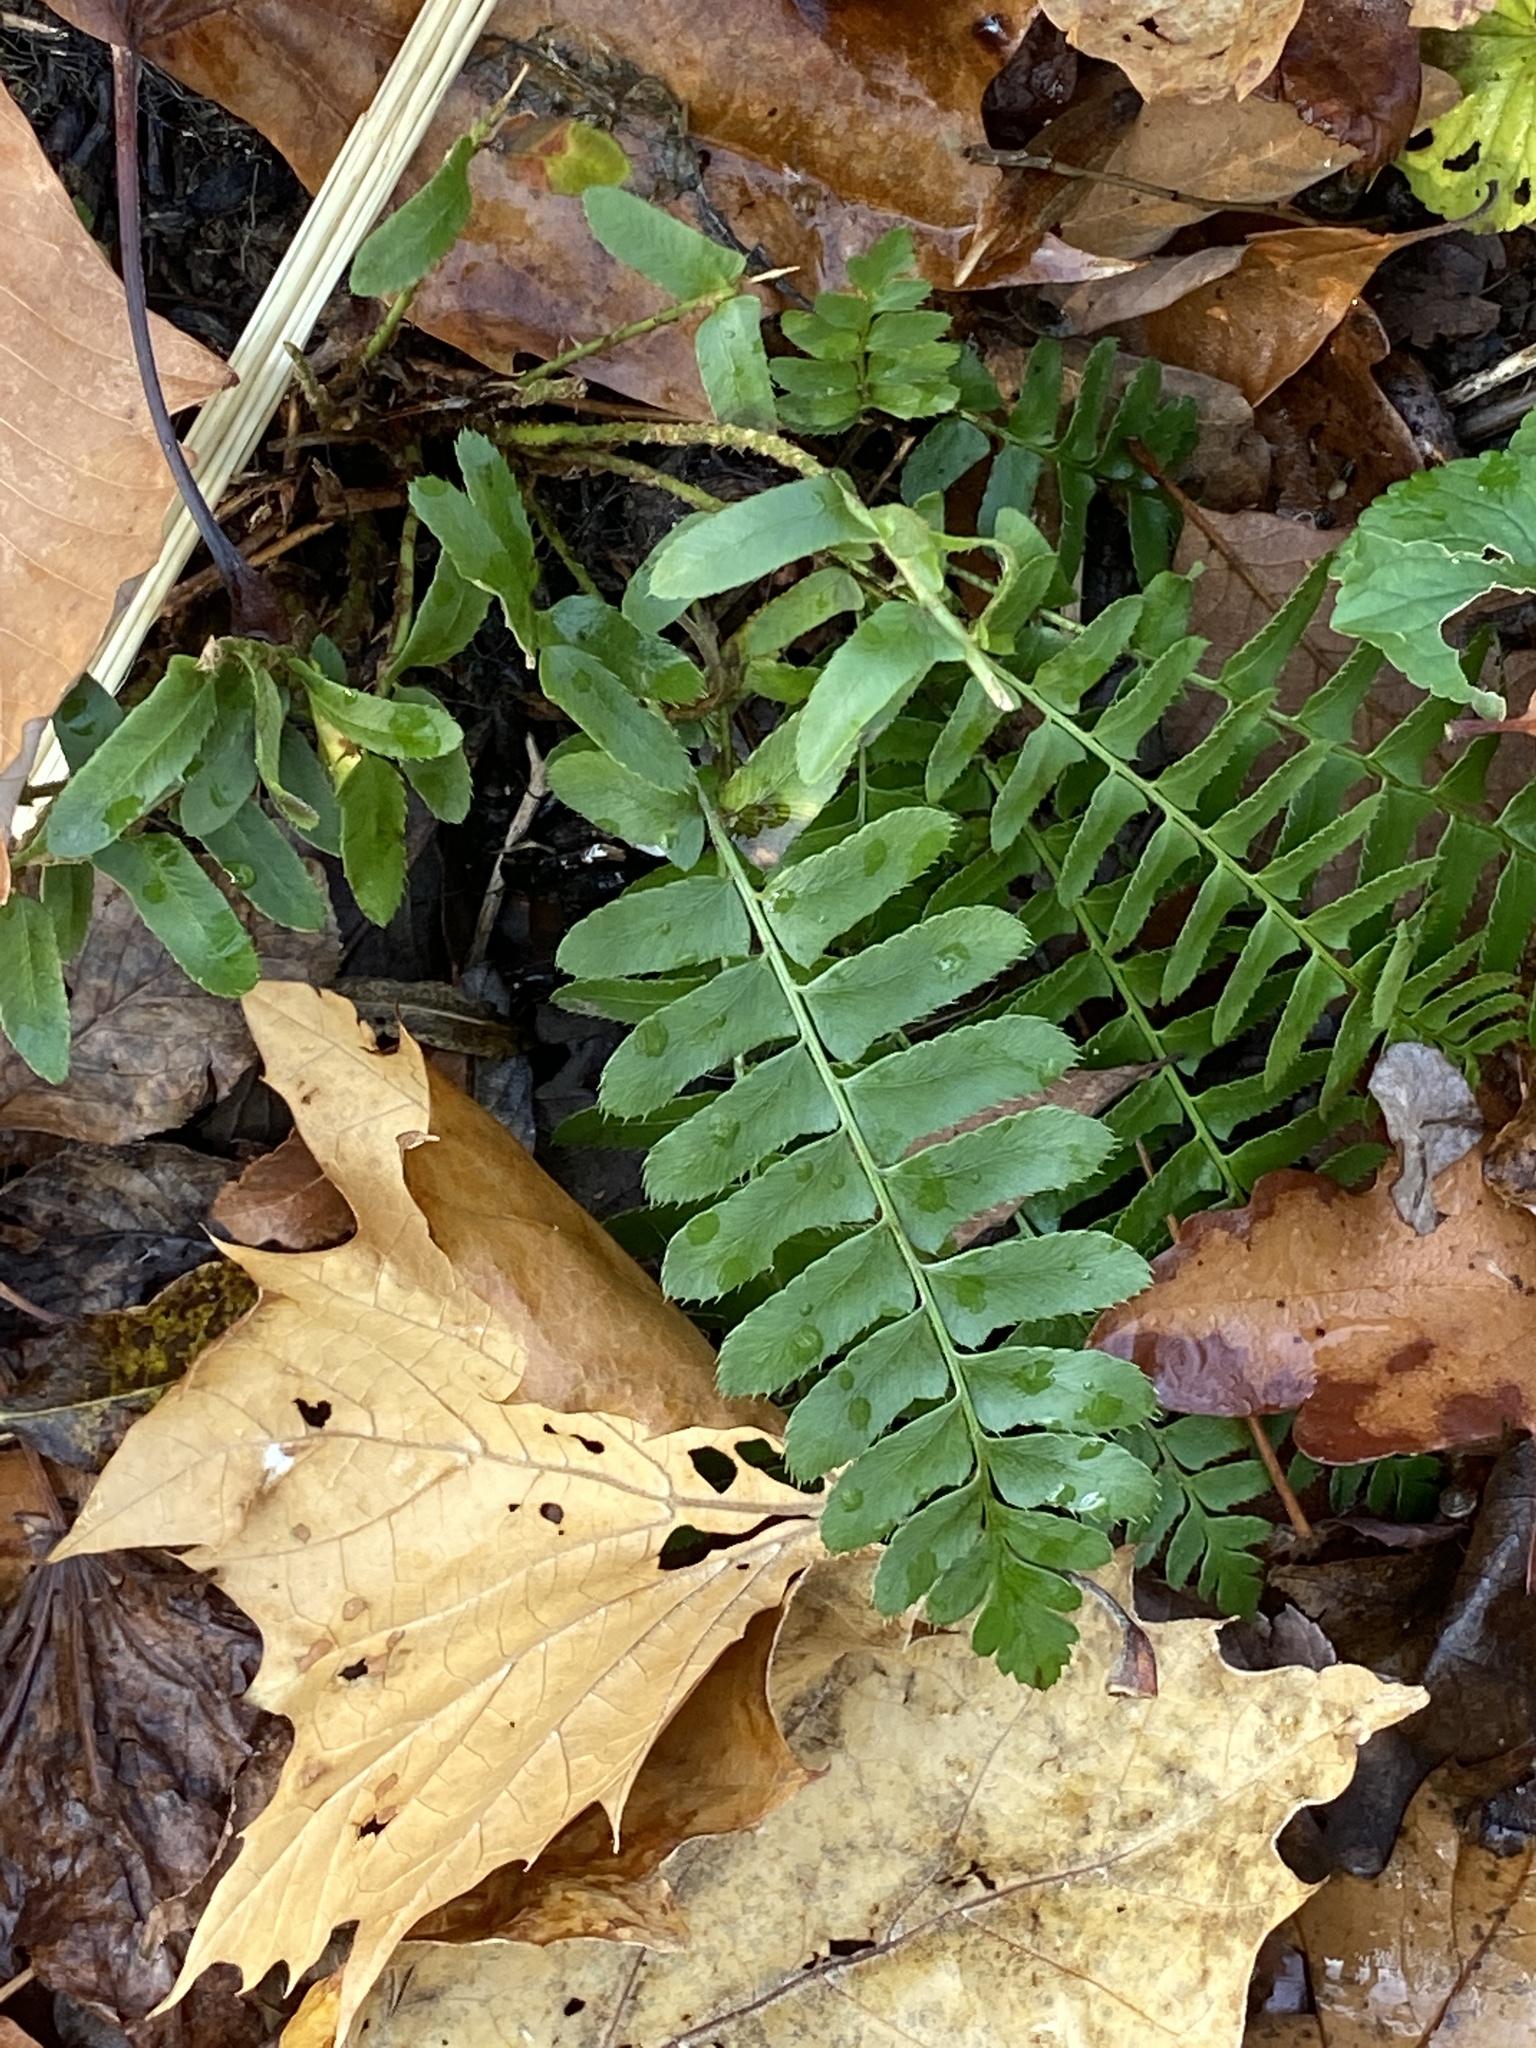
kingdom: Plantae
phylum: Tracheophyta
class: Polypodiopsida
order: Polypodiales
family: Dryopteridaceae
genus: Polystichum
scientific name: Polystichum acrostichoides
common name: Christmas fern
